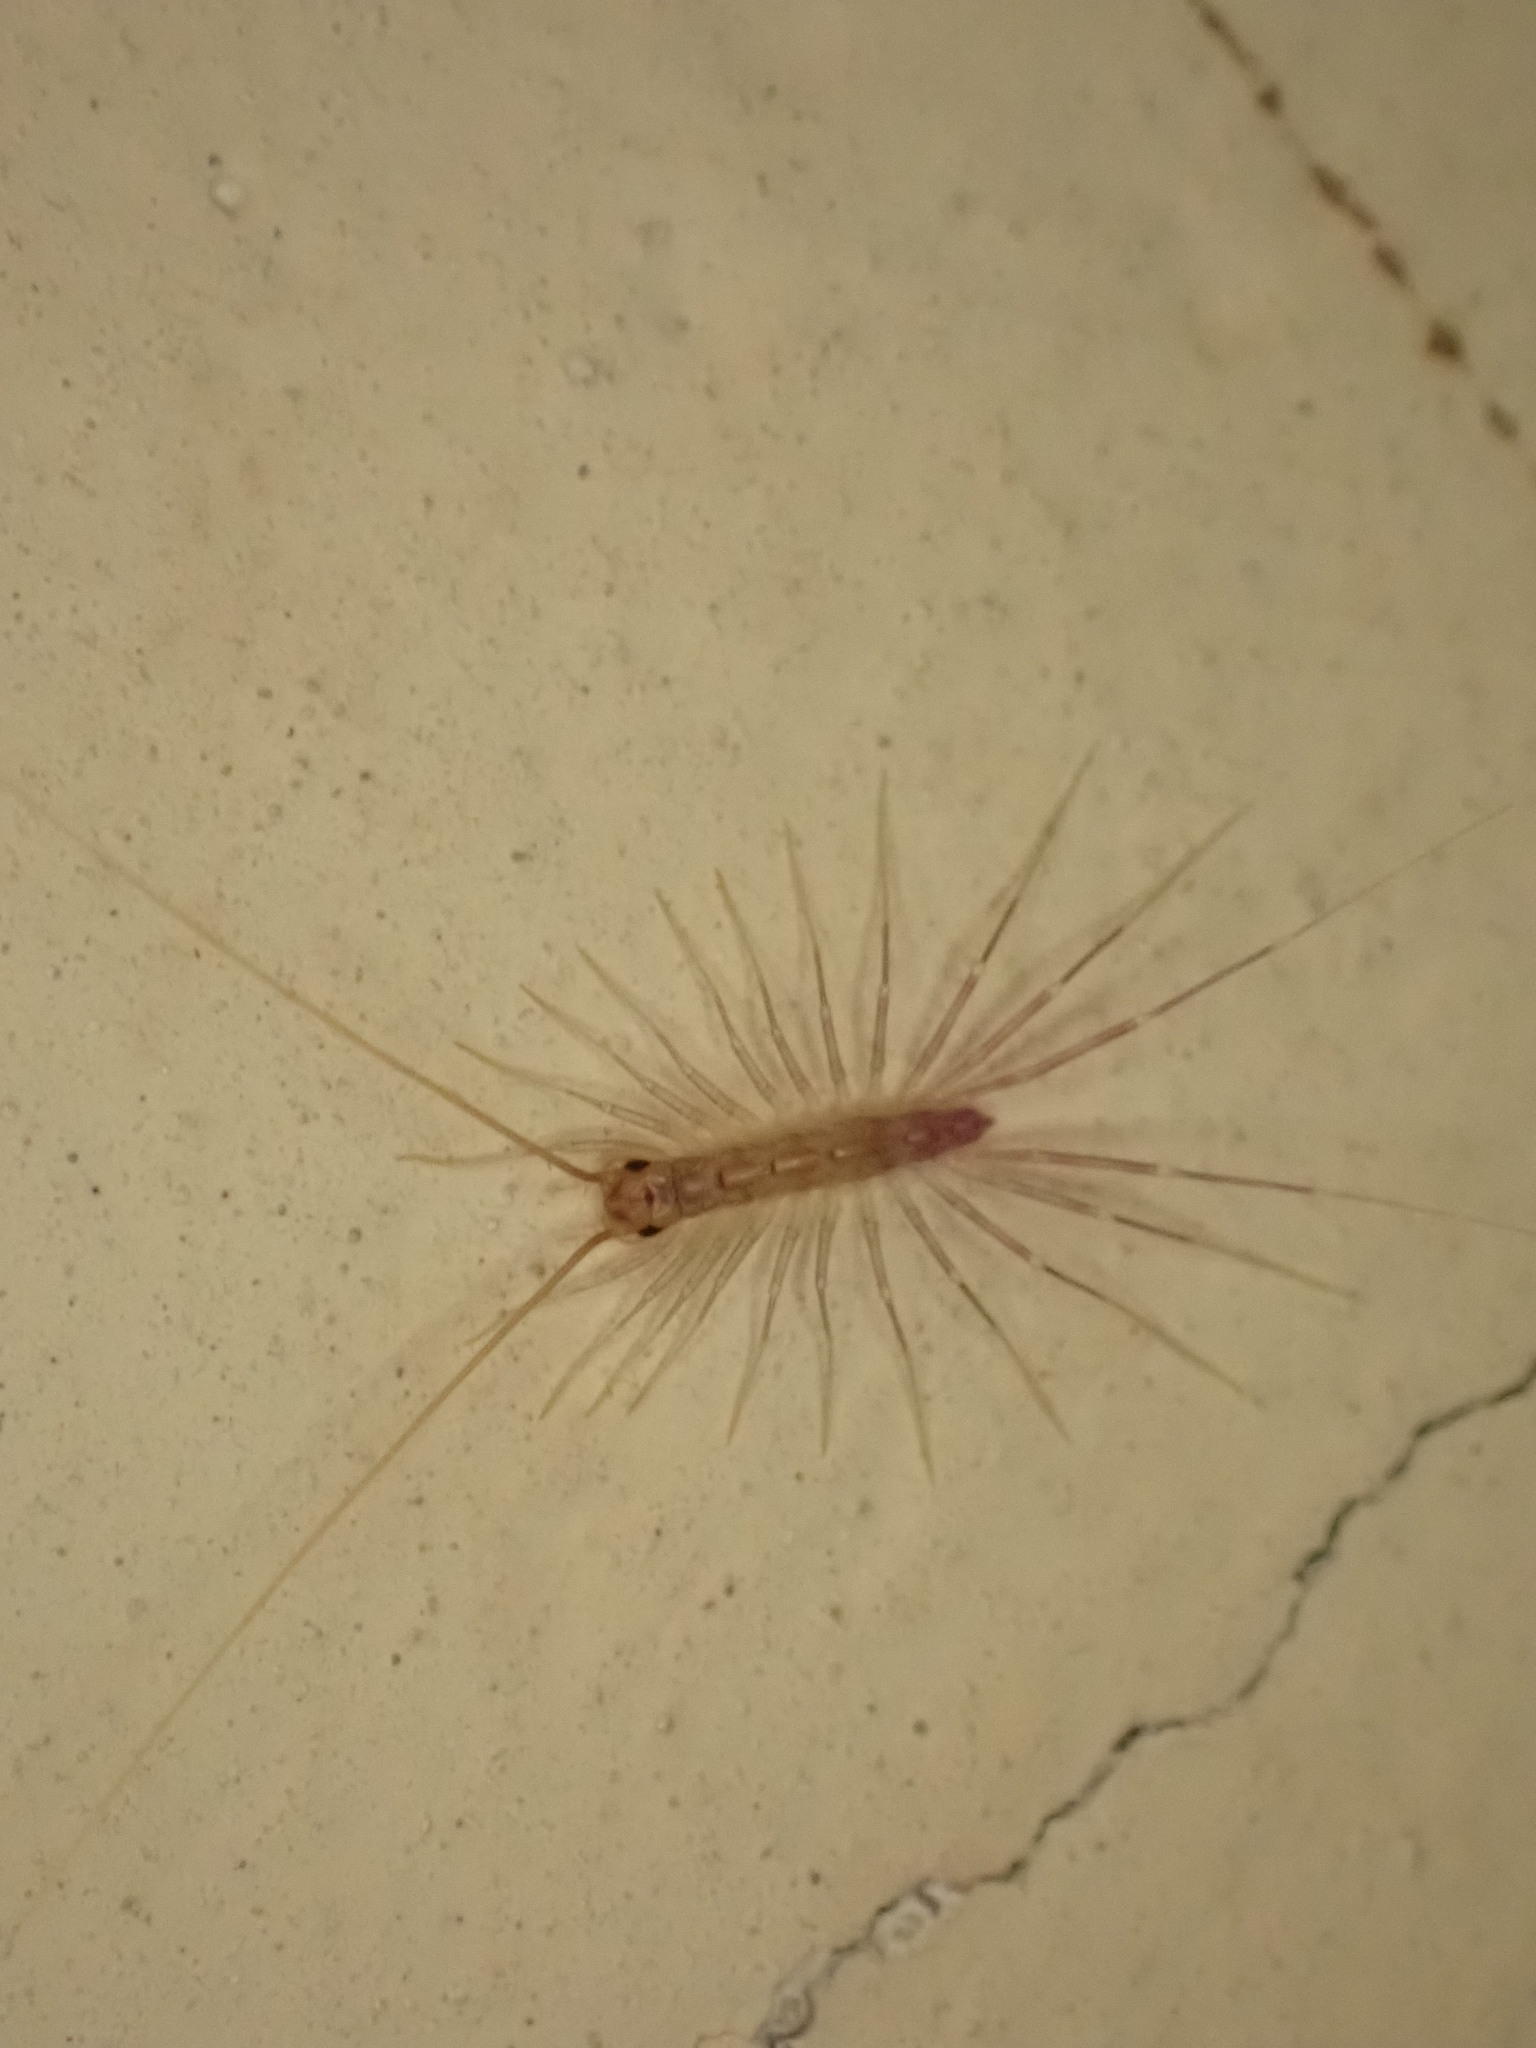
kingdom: Animalia
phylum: Arthropoda
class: Chilopoda
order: Scutigeromorpha
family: Scutigeridae
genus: Scutigera
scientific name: Scutigera coleoptrata
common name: House centipede
